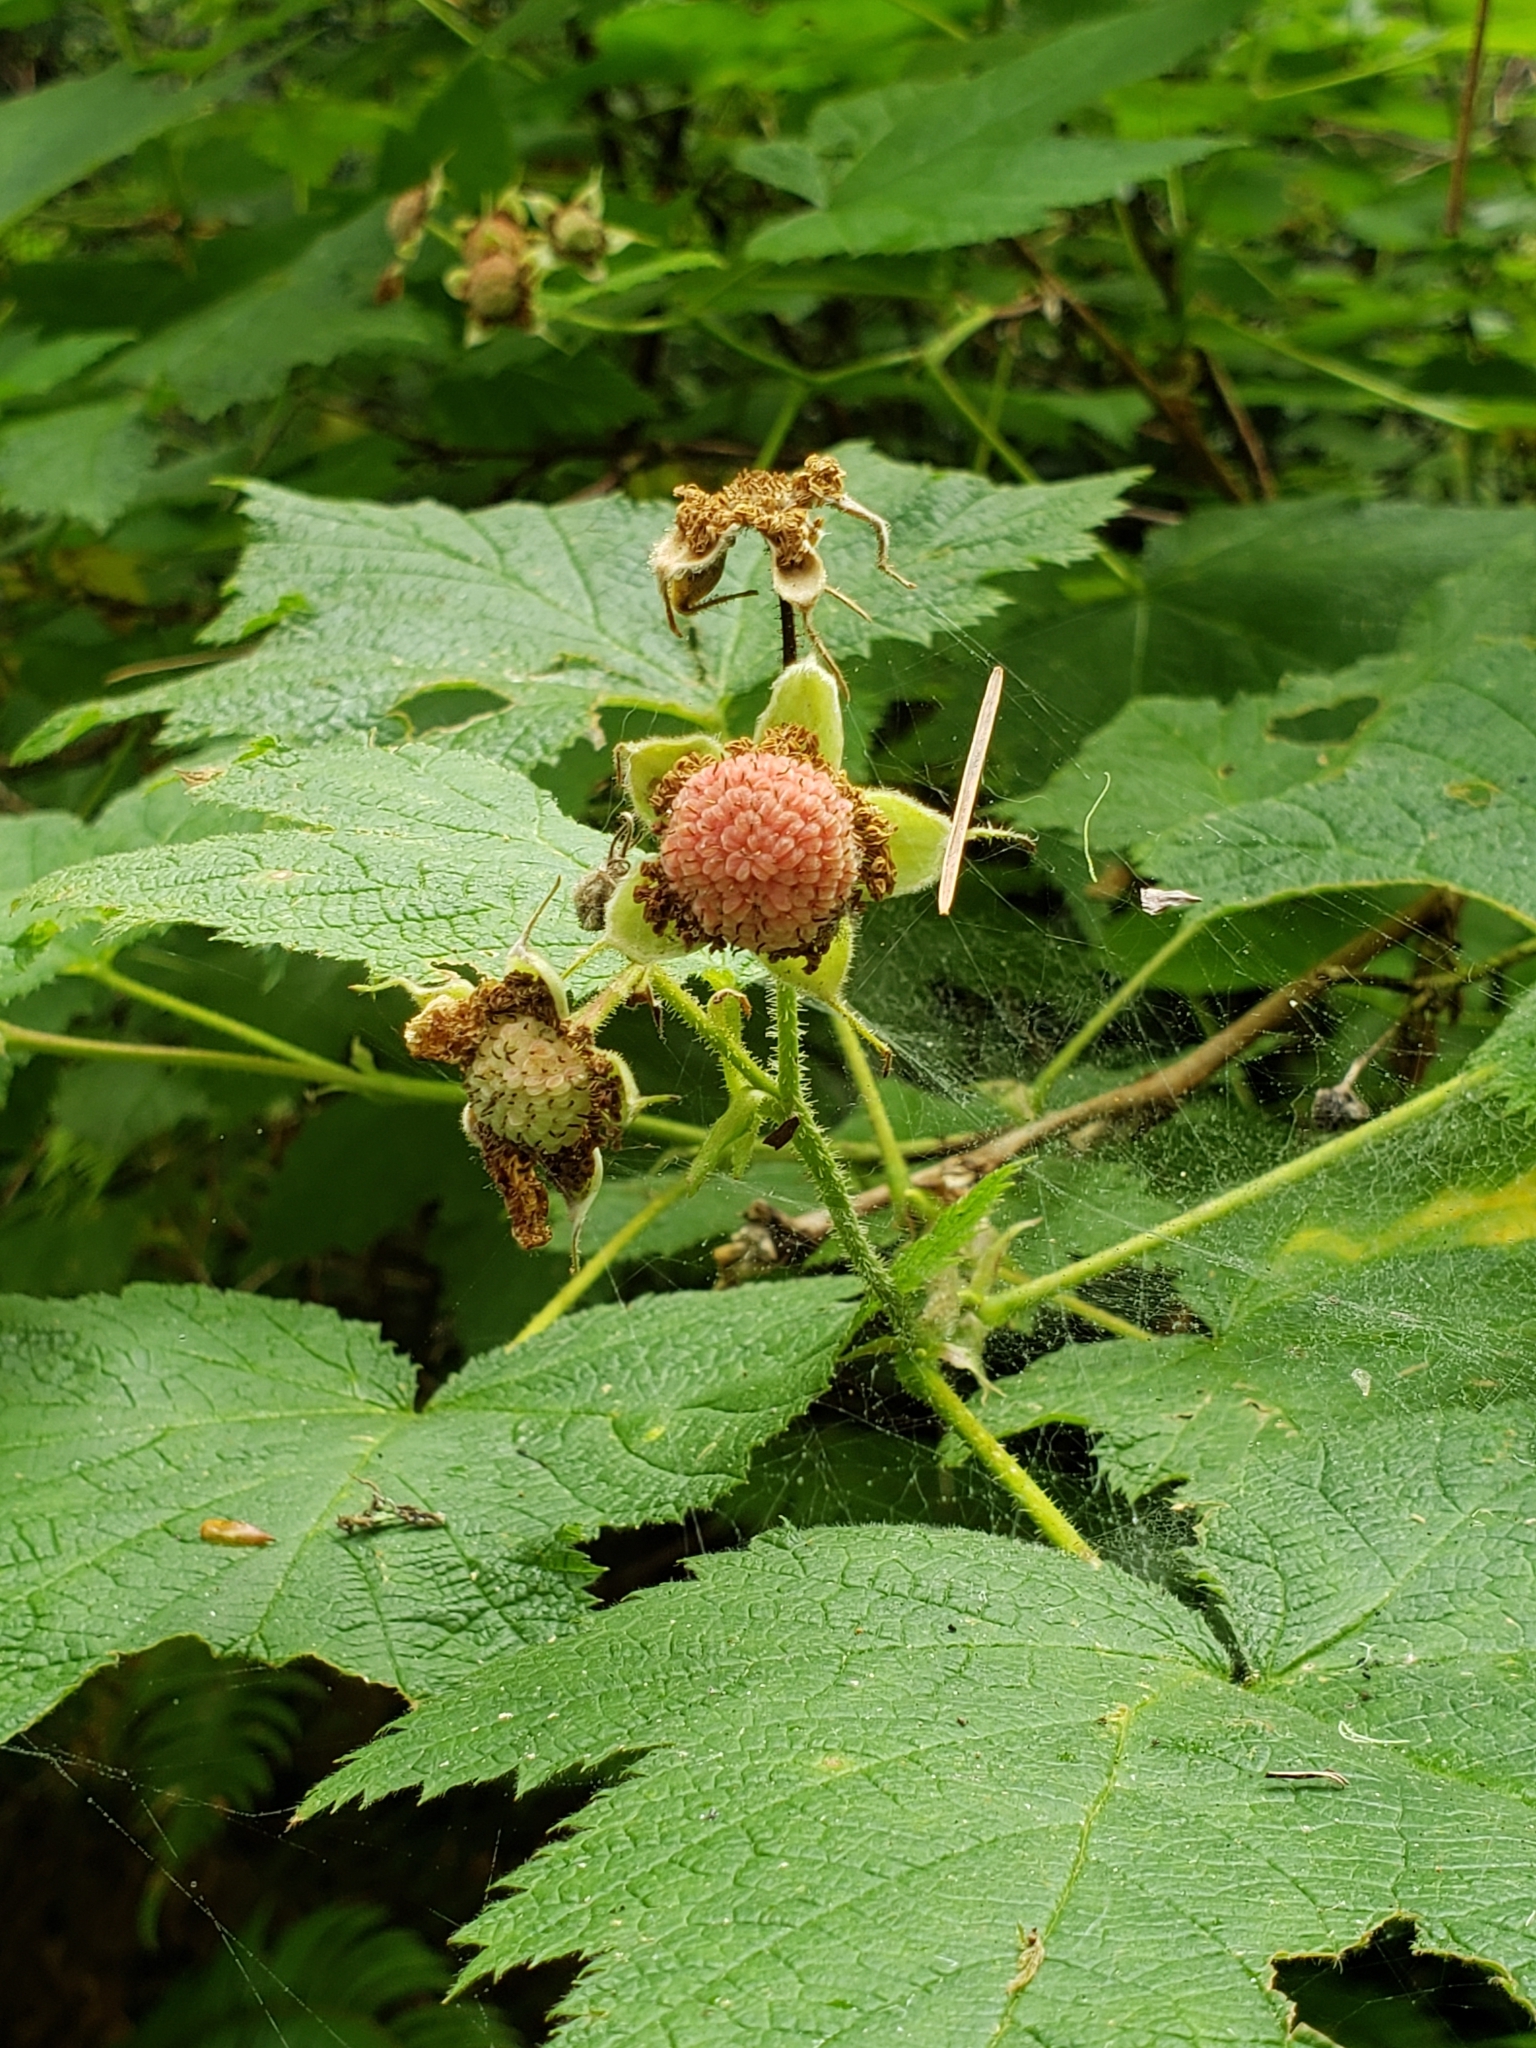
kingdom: Plantae
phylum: Tracheophyta
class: Magnoliopsida
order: Rosales
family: Rosaceae
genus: Rubus
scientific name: Rubus parviflorus
